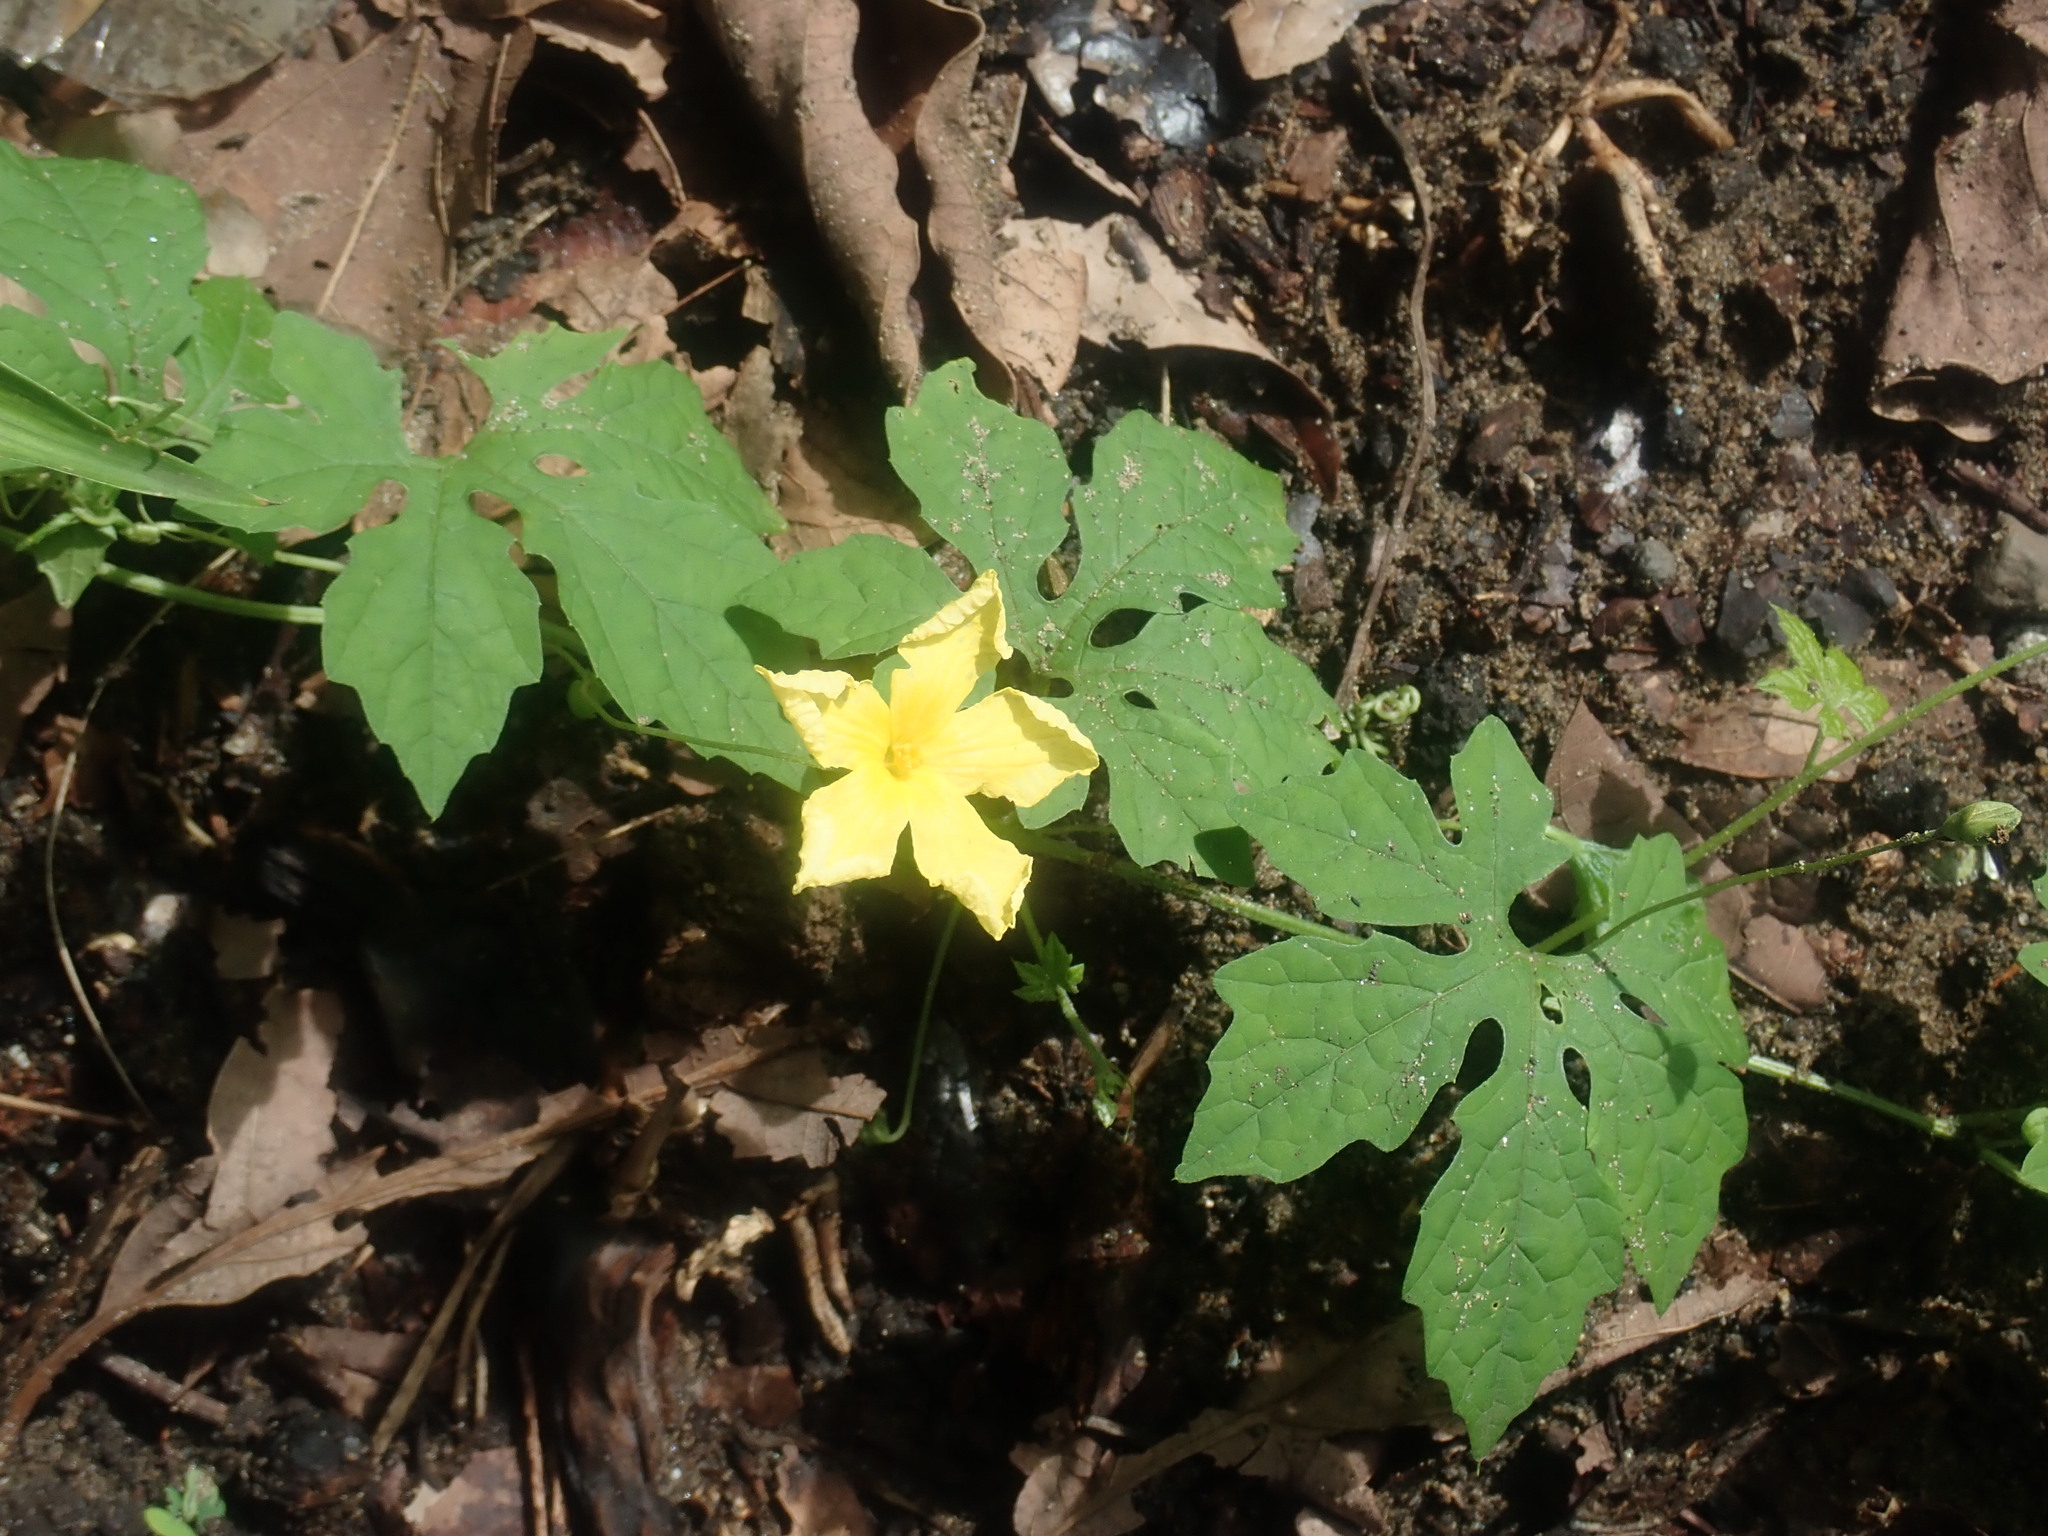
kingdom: Plantae
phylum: Tracheophyta
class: Magnoliopsida
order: Cucurbitales
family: Cucurbitaceae
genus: Momordica
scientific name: Momordica charantia
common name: Balsampear
